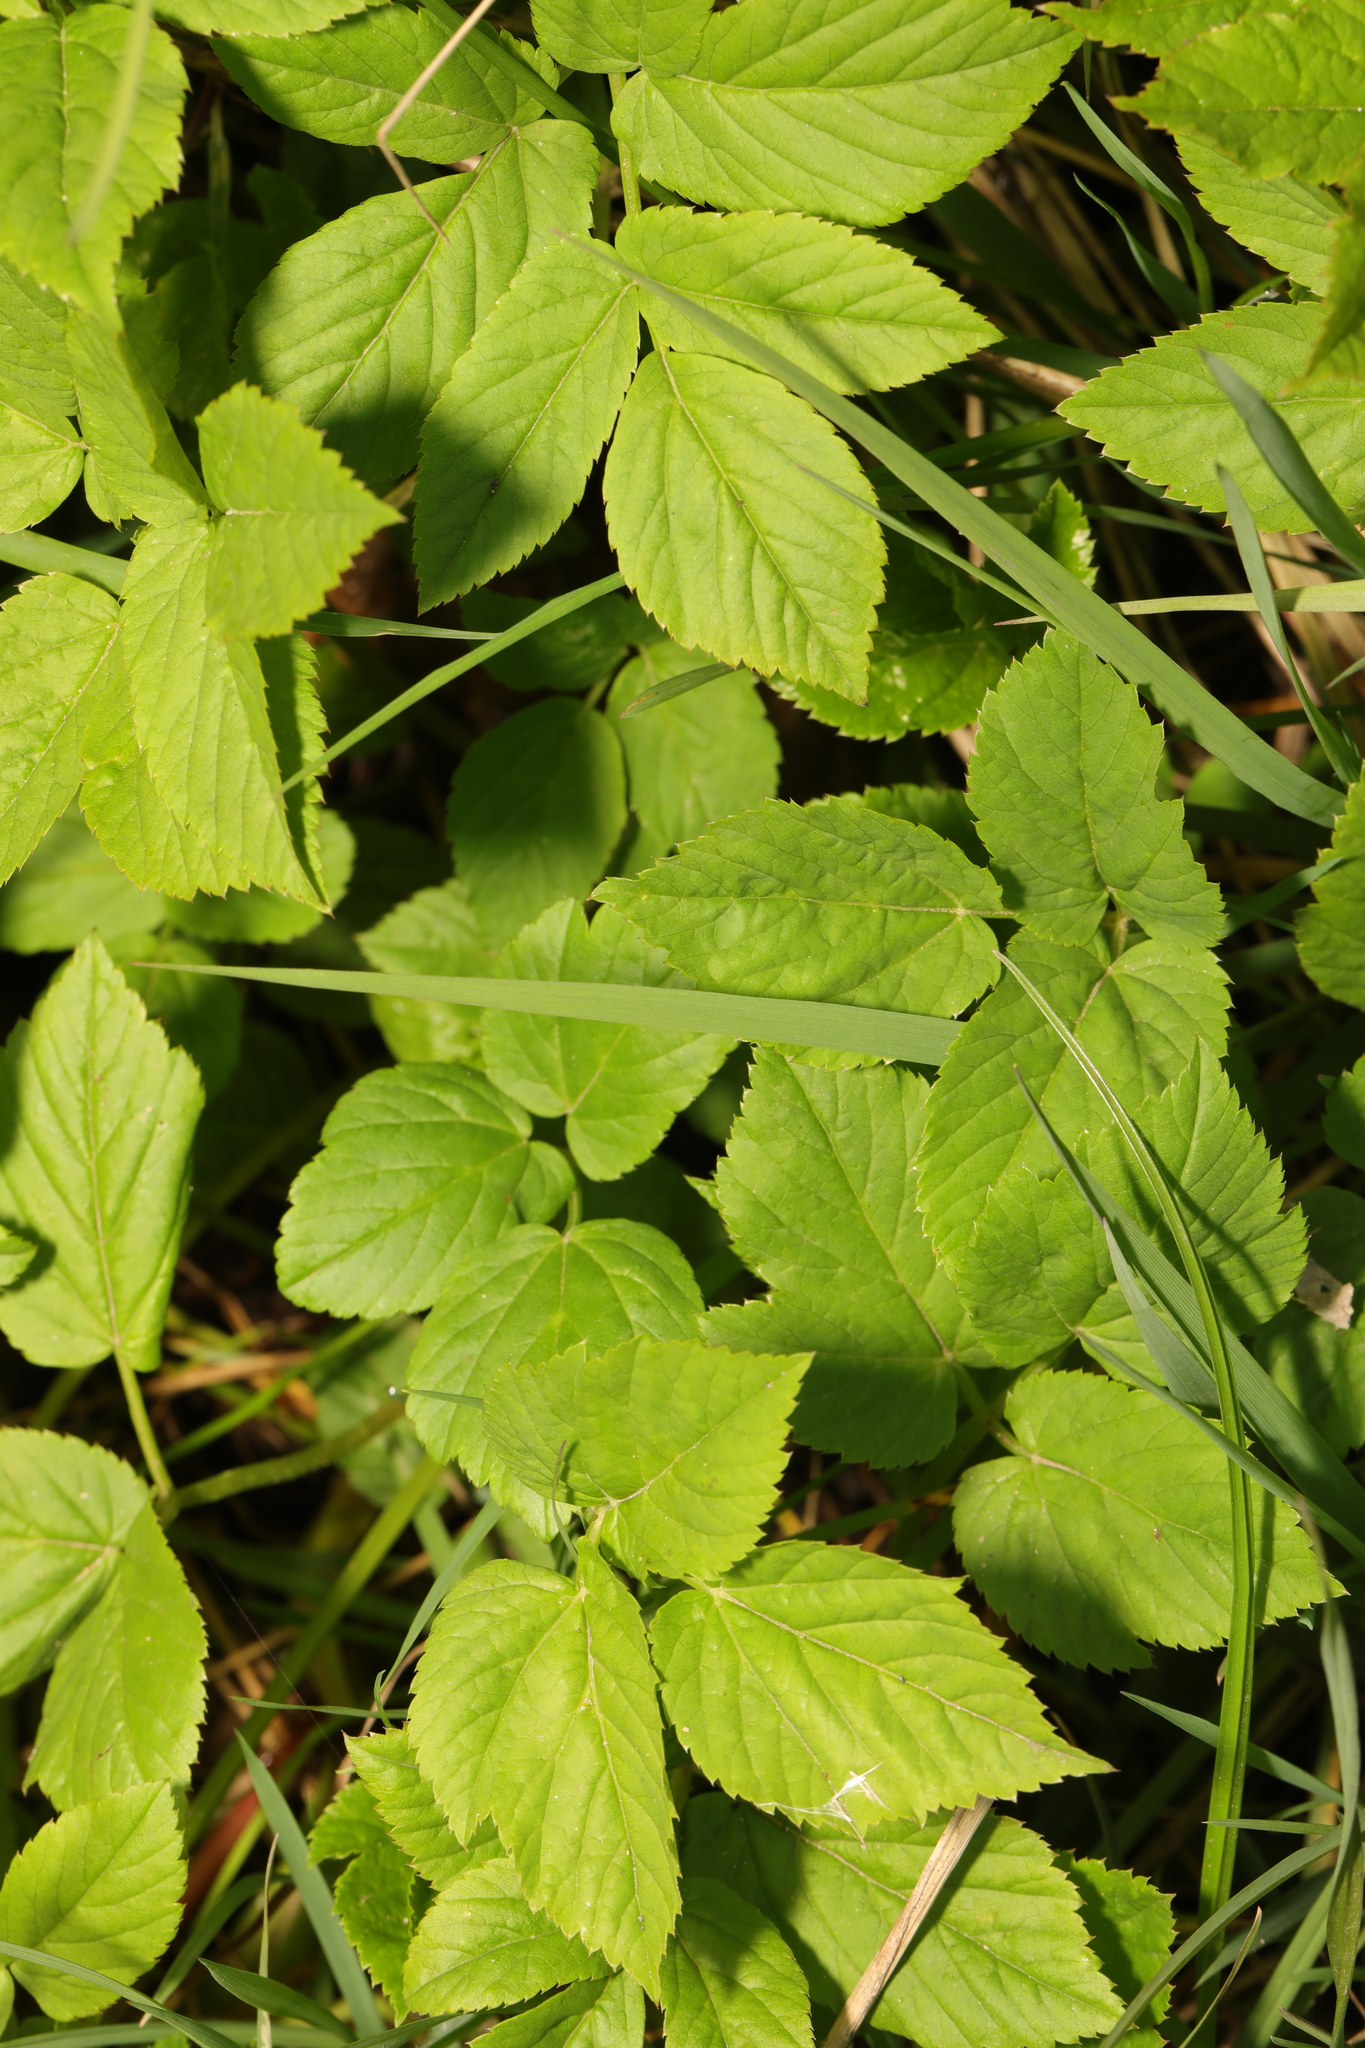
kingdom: Plantae
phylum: Tracheophyta
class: Magnoliopsida
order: Apiales
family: Apiaceae
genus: Aegopodium
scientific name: Aegopodium podagraria
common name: Ground-elder
